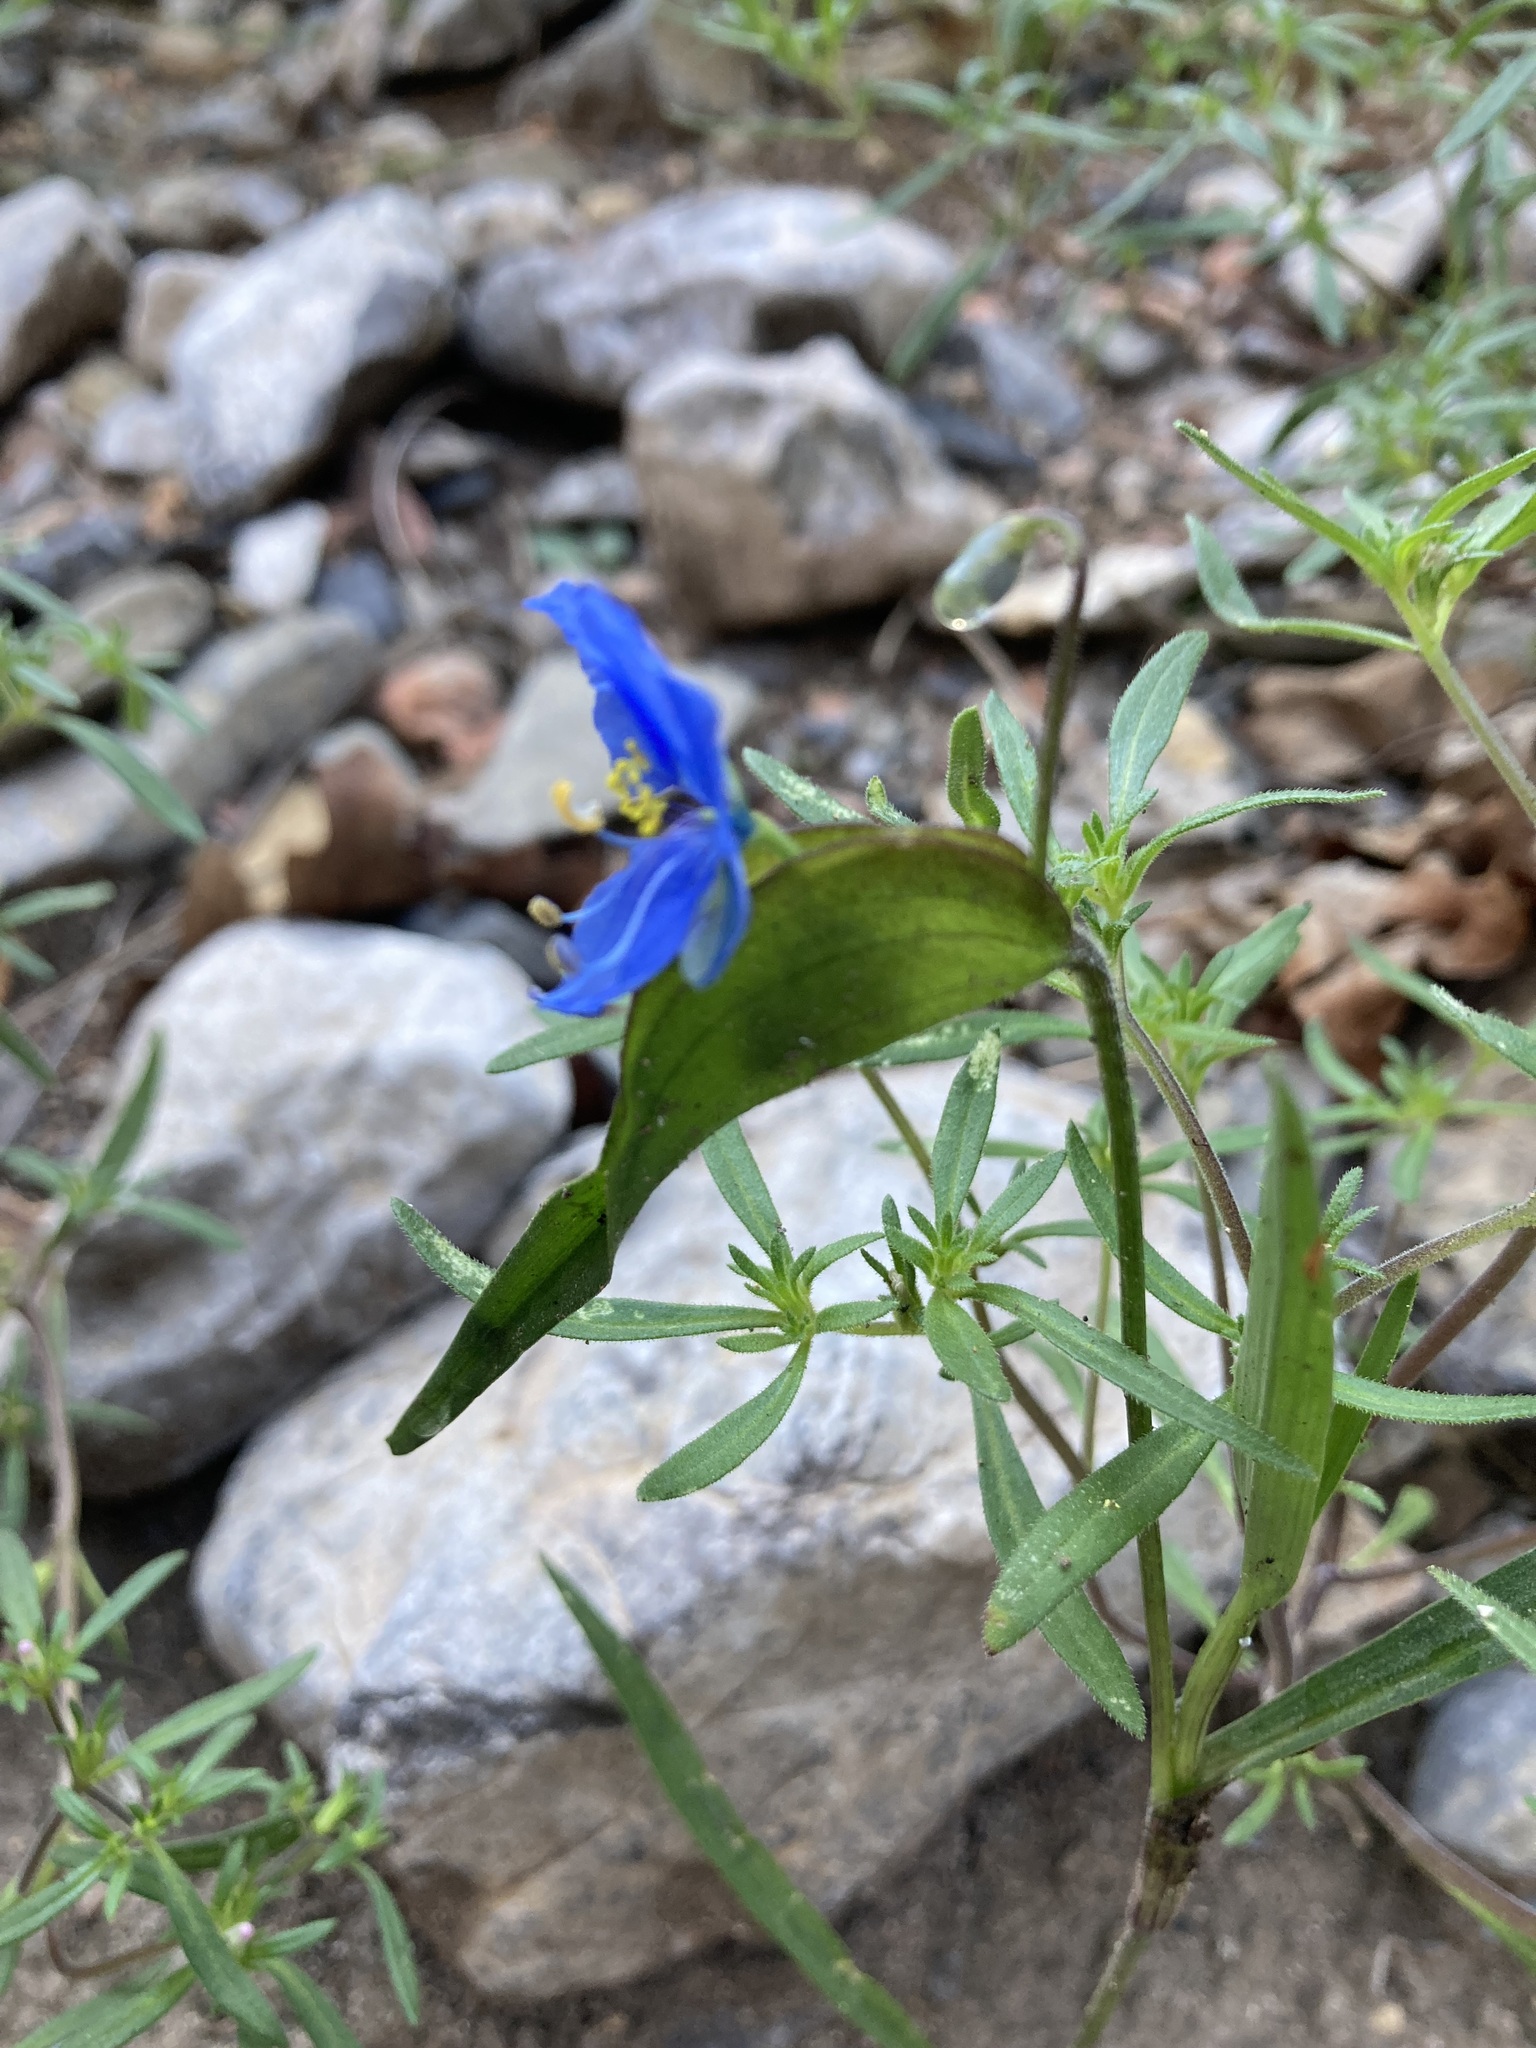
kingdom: Plantae
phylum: Tracheophyta
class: Liliopsida
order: Commelinales
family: Commelinaceae
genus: Commelina
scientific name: Commelina dianthifolia
